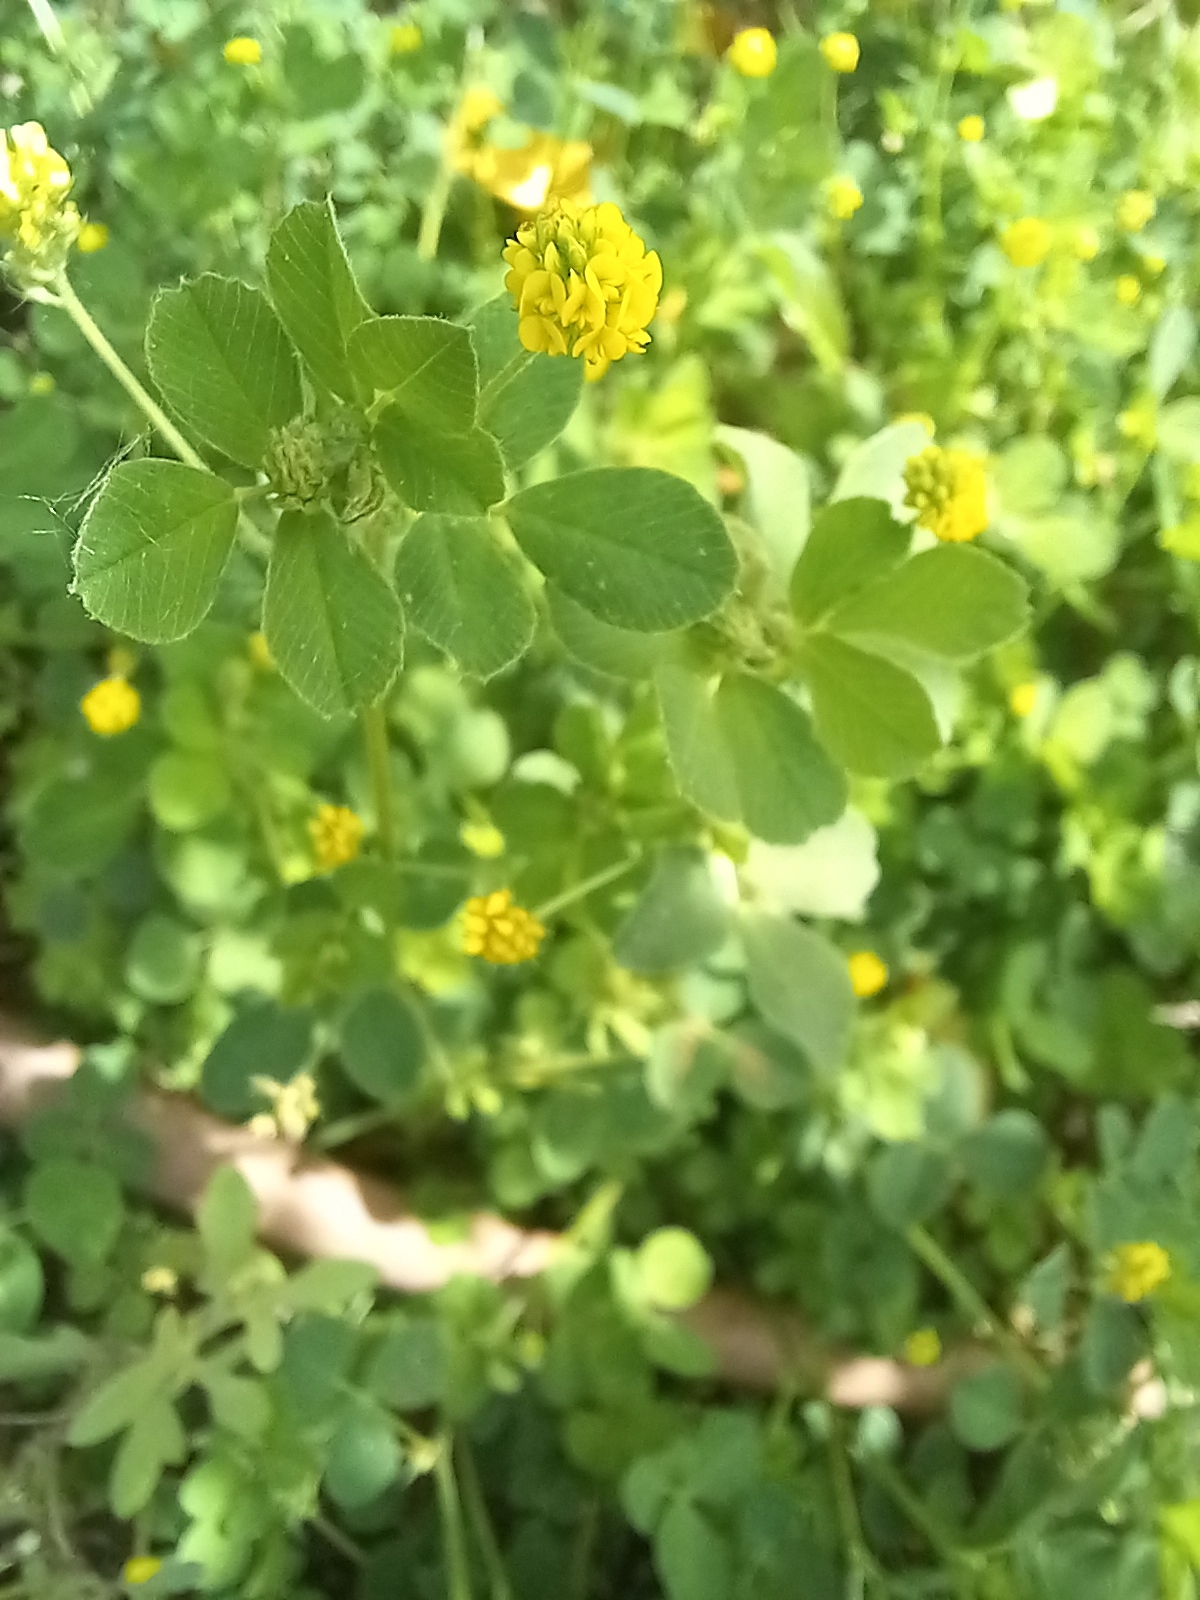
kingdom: Plantae
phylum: Tracheophyta
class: Magnoliopsida
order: Fabales
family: Fabaceae
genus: Medicago
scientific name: Medicago lupulina
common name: Black medick
